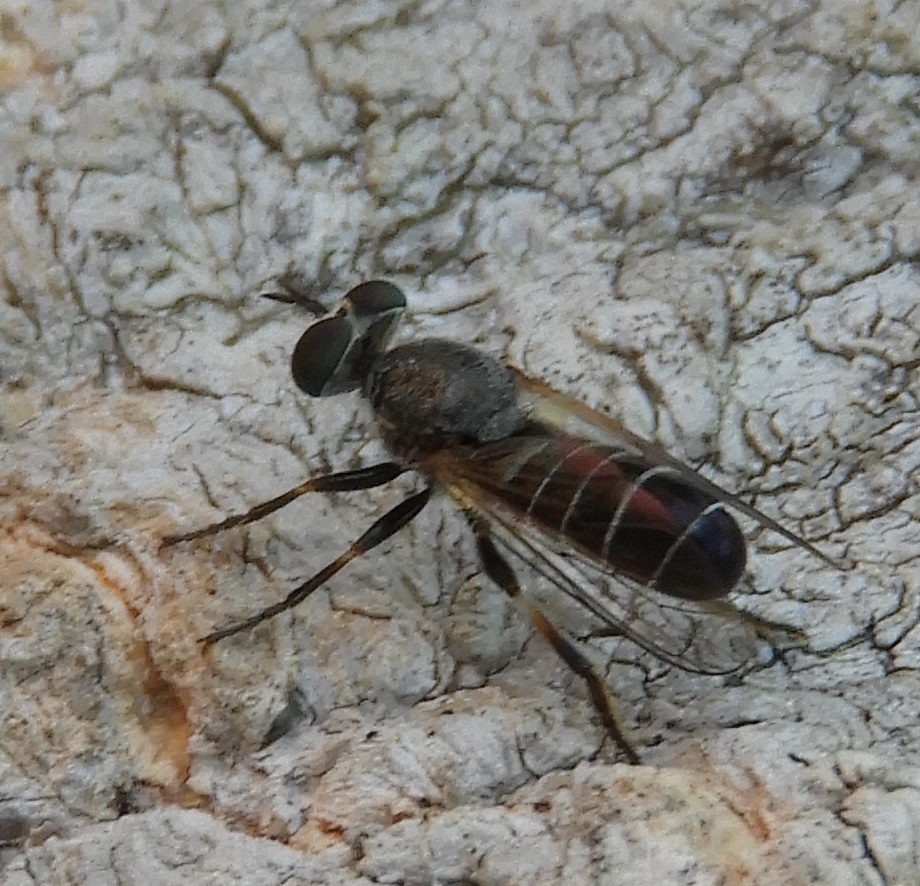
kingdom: Animalia
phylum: Arthropoda
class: Insecta
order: Diptera
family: Asilidae
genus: Atomosia
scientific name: Atomosia
